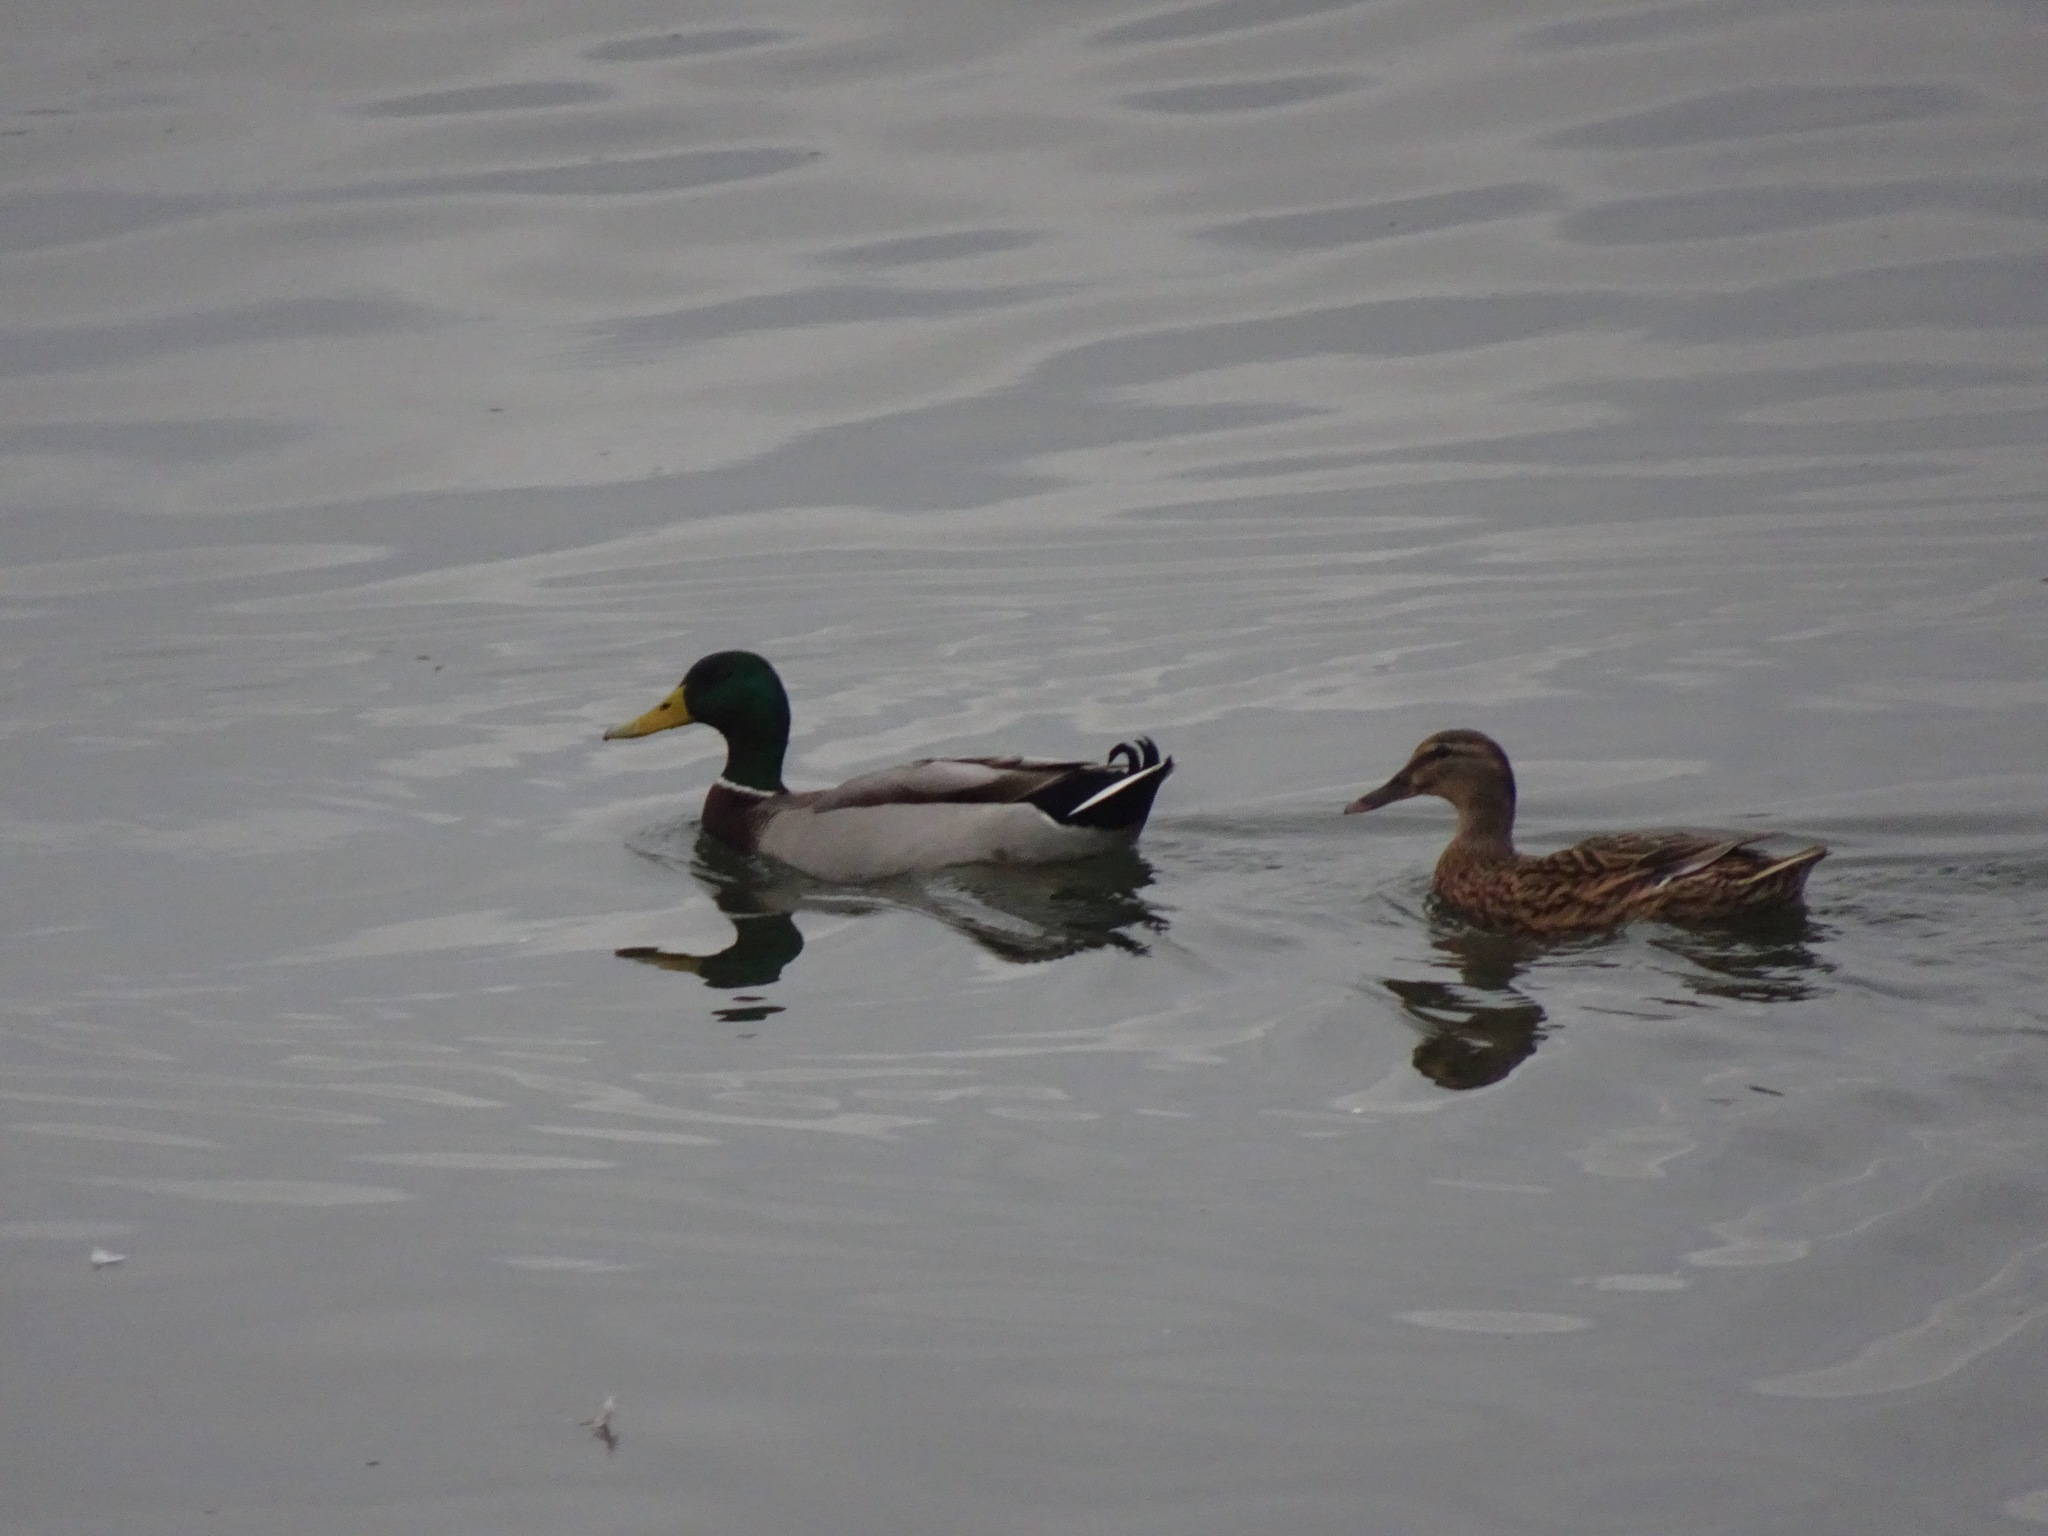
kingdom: Animalia
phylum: Chordata
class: Aves
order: Anseriformes
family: Anatidae
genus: Anas
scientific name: Anas platyrhynchos
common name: Mallard
